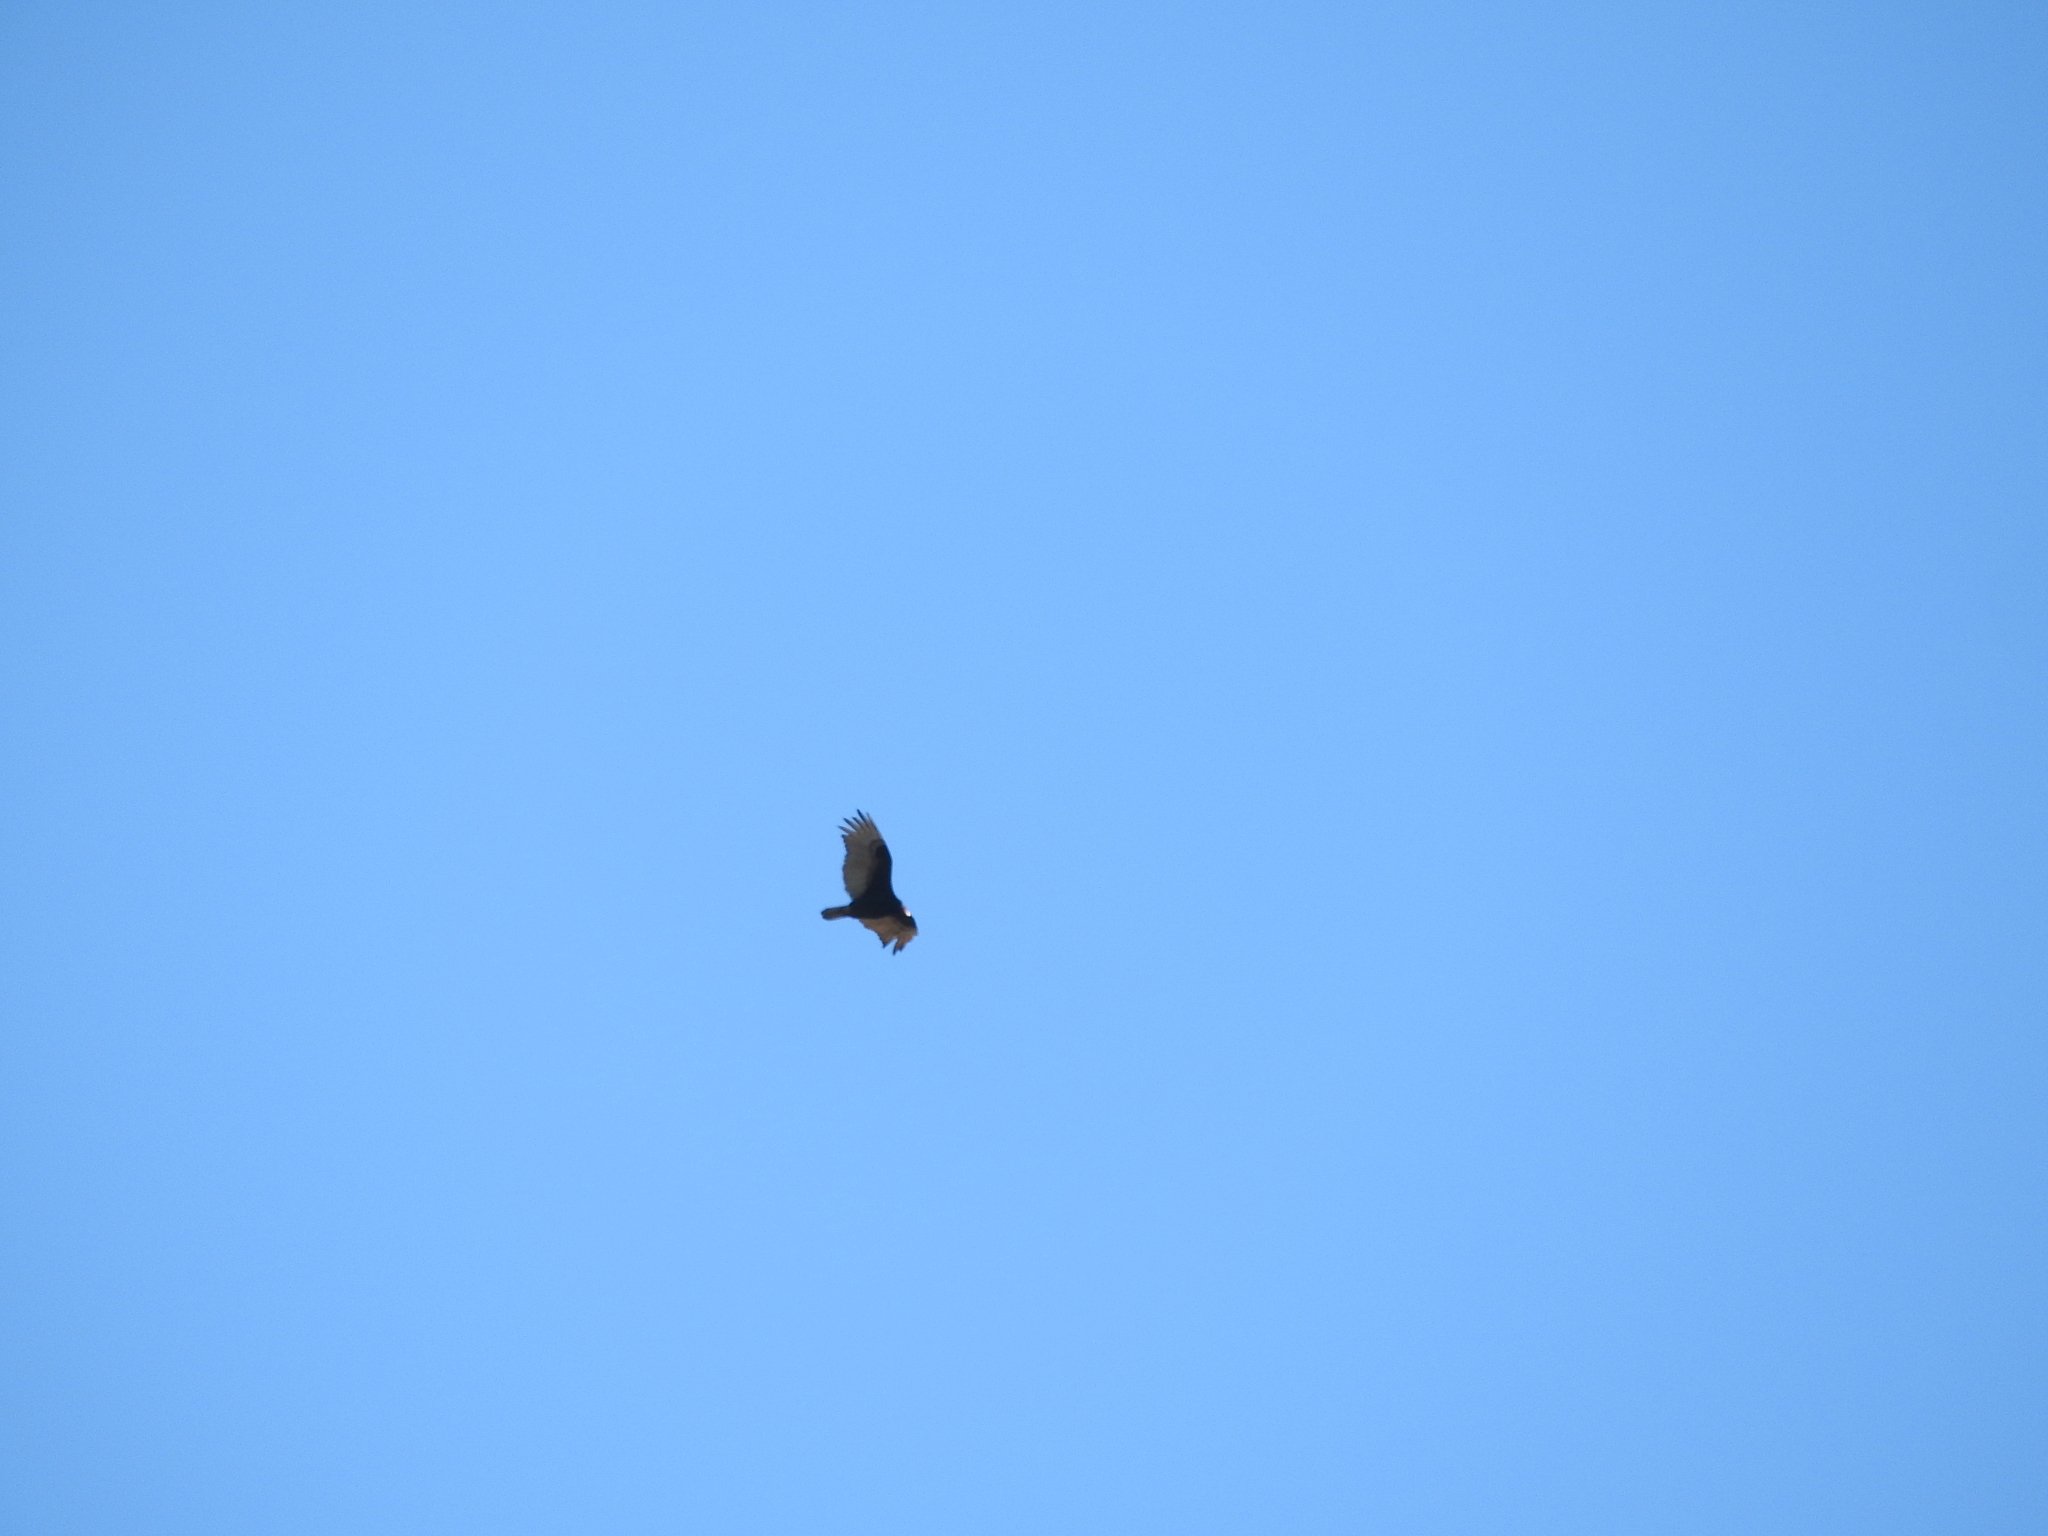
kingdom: Animalia
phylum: Chordata
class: Aves
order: Accipitriformes
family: Cathartidae
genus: Cathartes
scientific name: Cathartes aura
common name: Turkey vulture
